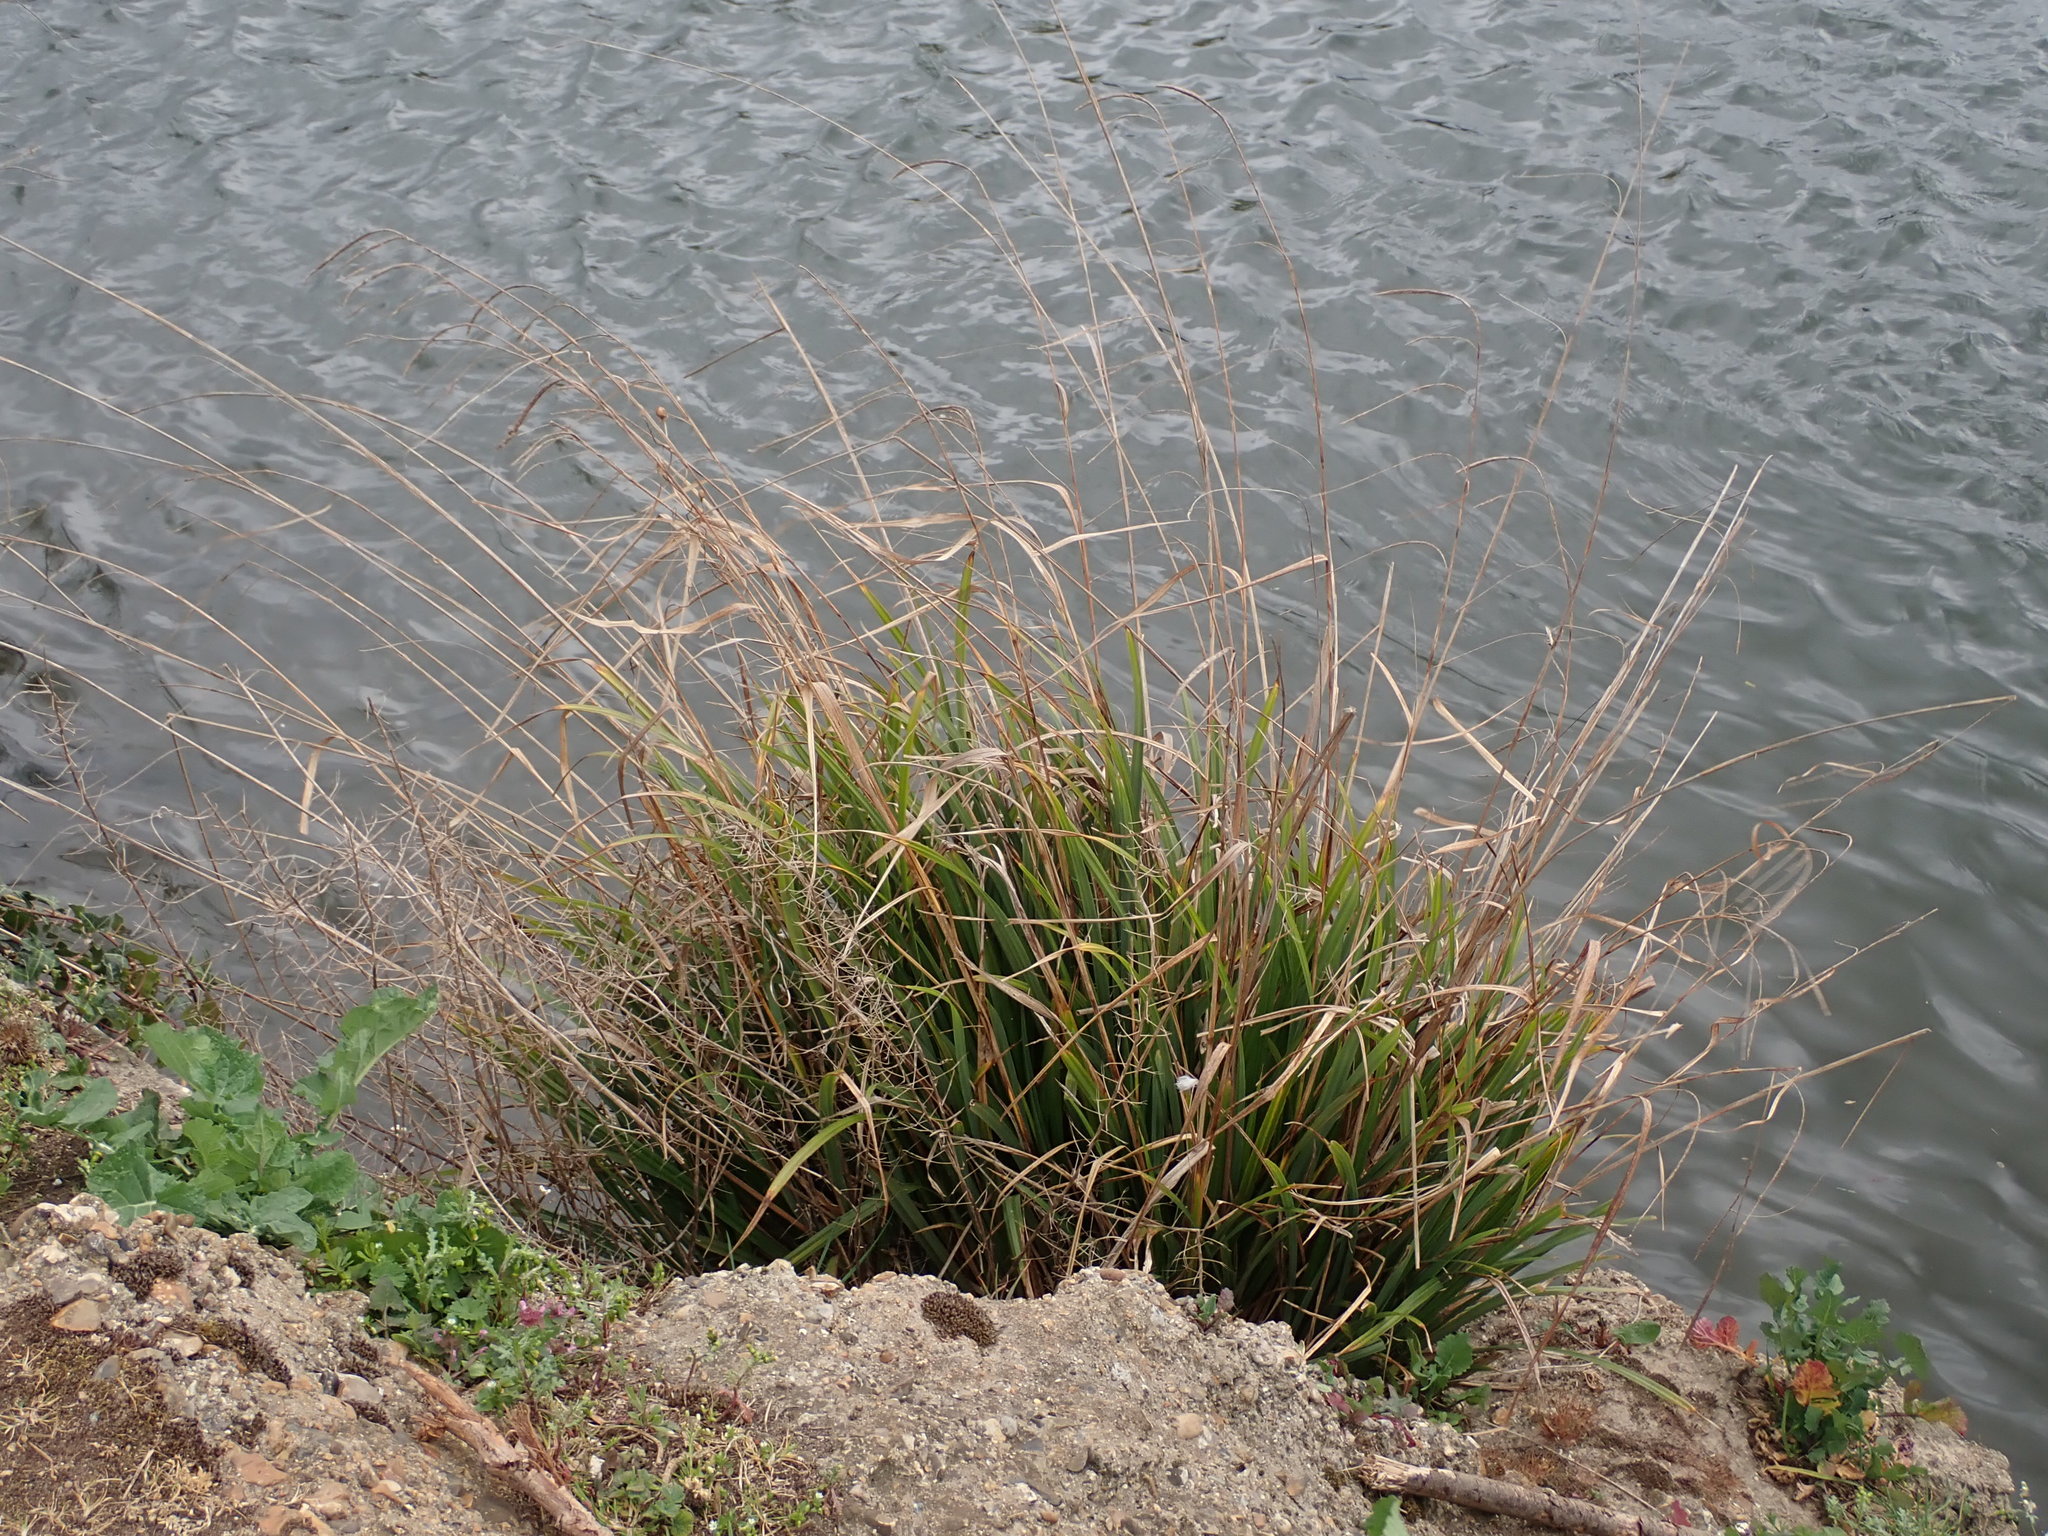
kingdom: Plantae
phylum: Tracheophyta
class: Liliopsida
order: Poales
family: Cyperaceae
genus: Carex
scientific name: Carex pendula
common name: Pendulous sedge
